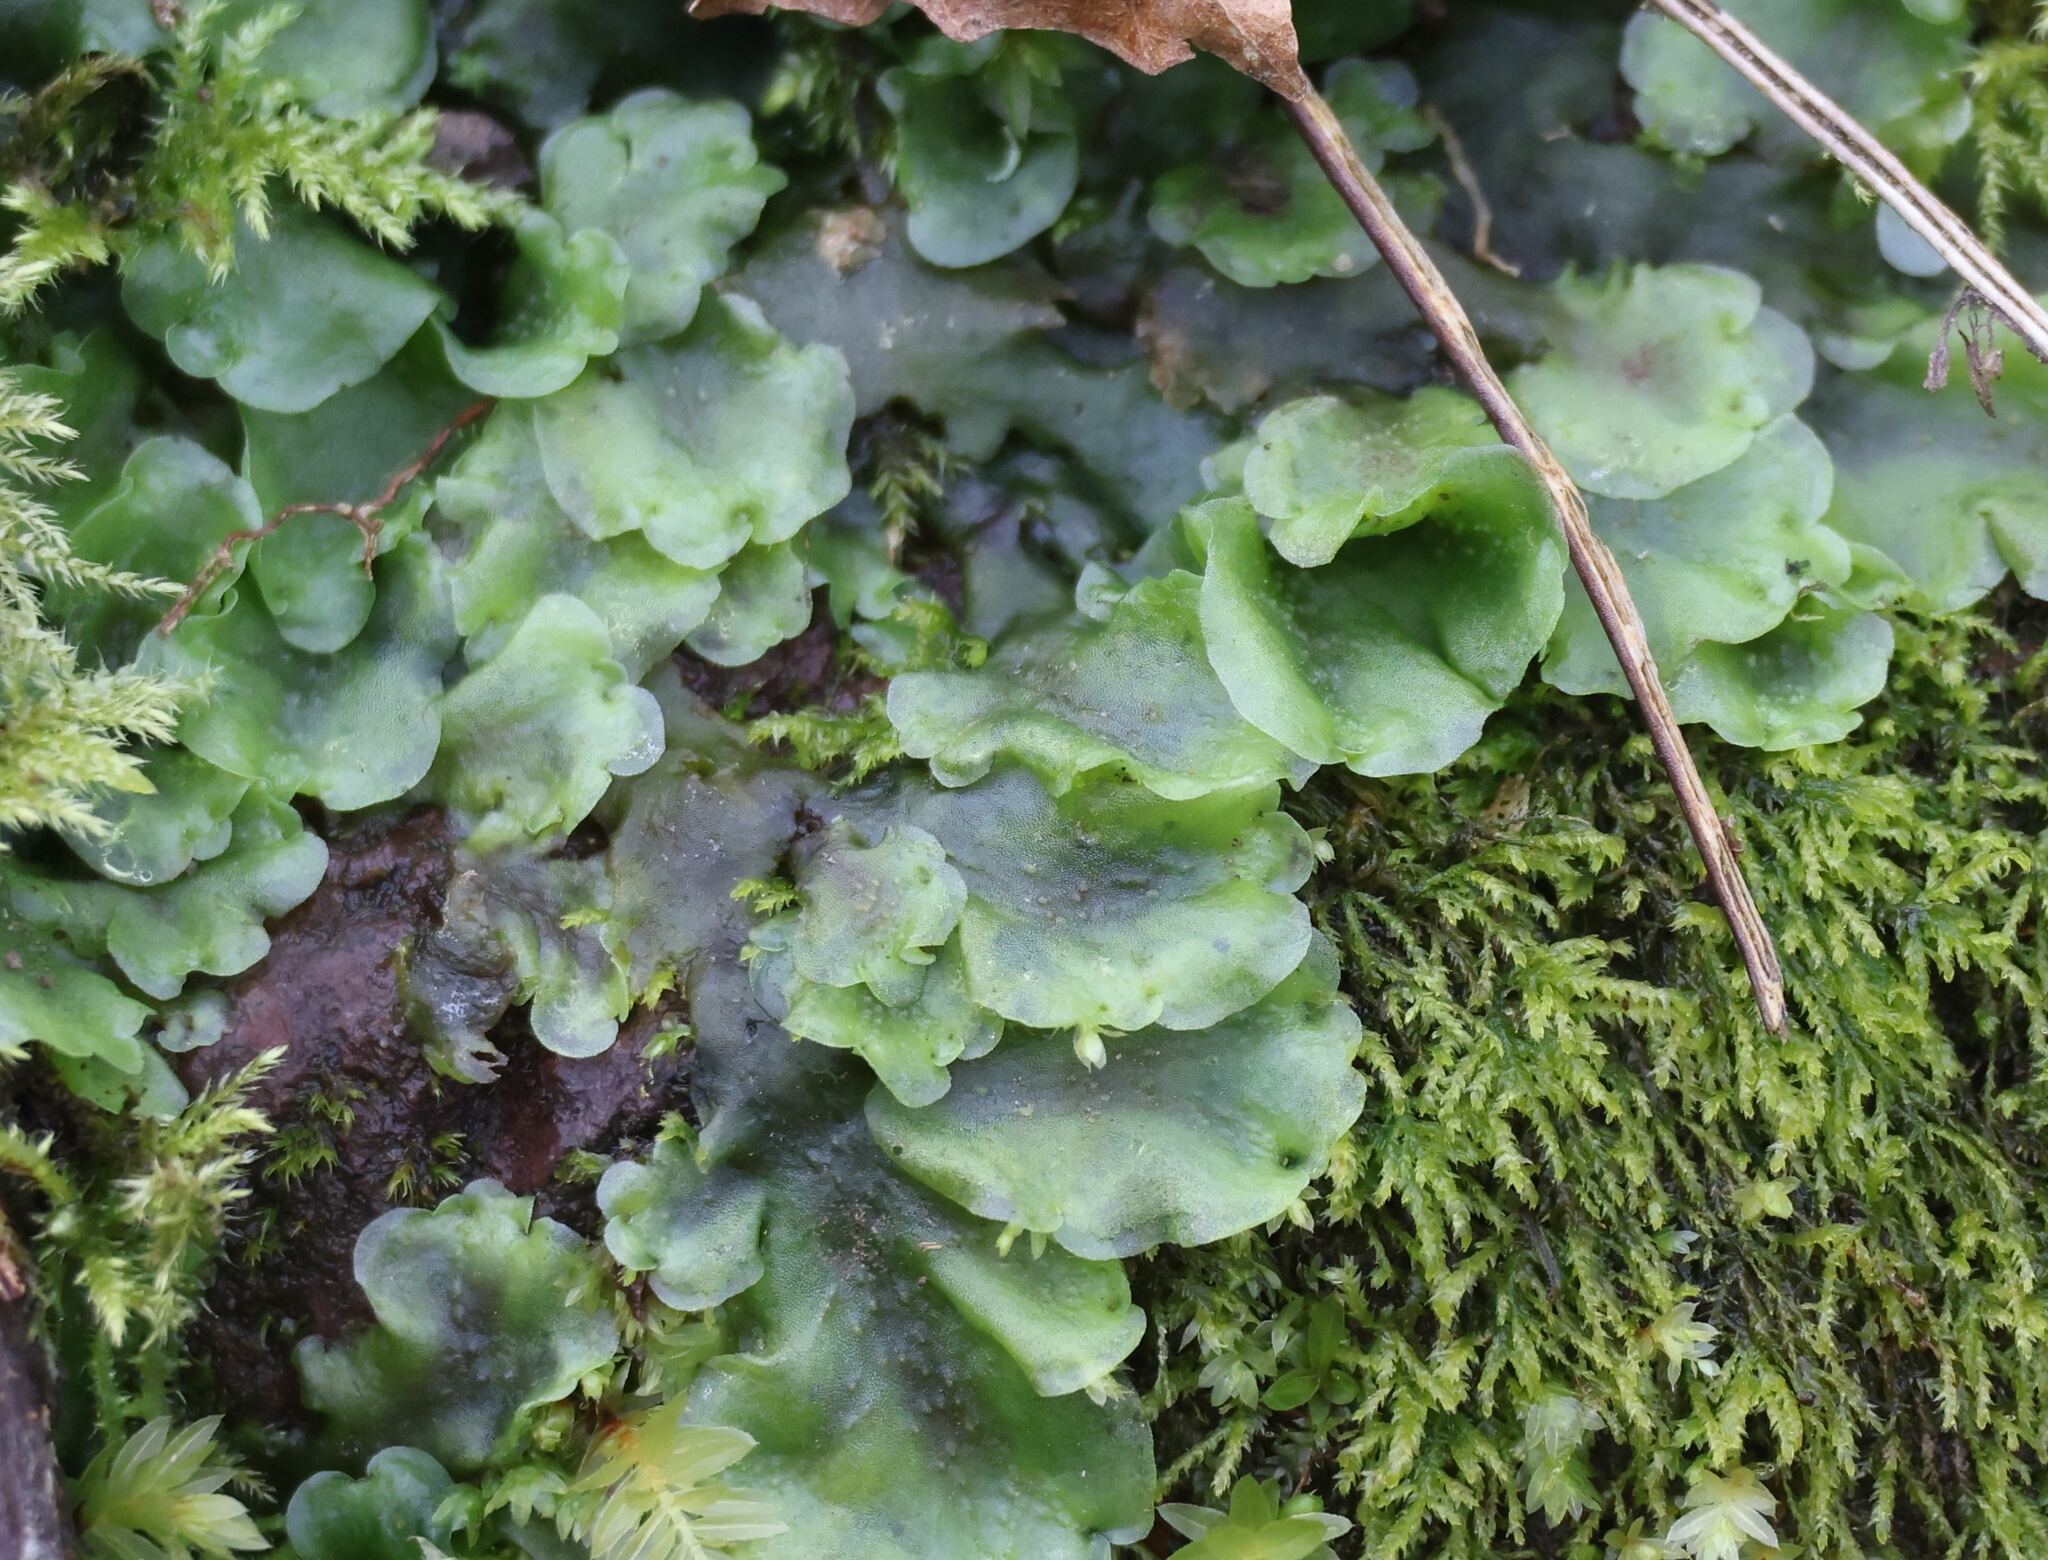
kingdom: Plantae
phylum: Marchantiophyta
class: Jungermanniopsida
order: Pelliales
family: Pelliaceae
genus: Pellia
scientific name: Pellia epiphylla
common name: Common pellia
